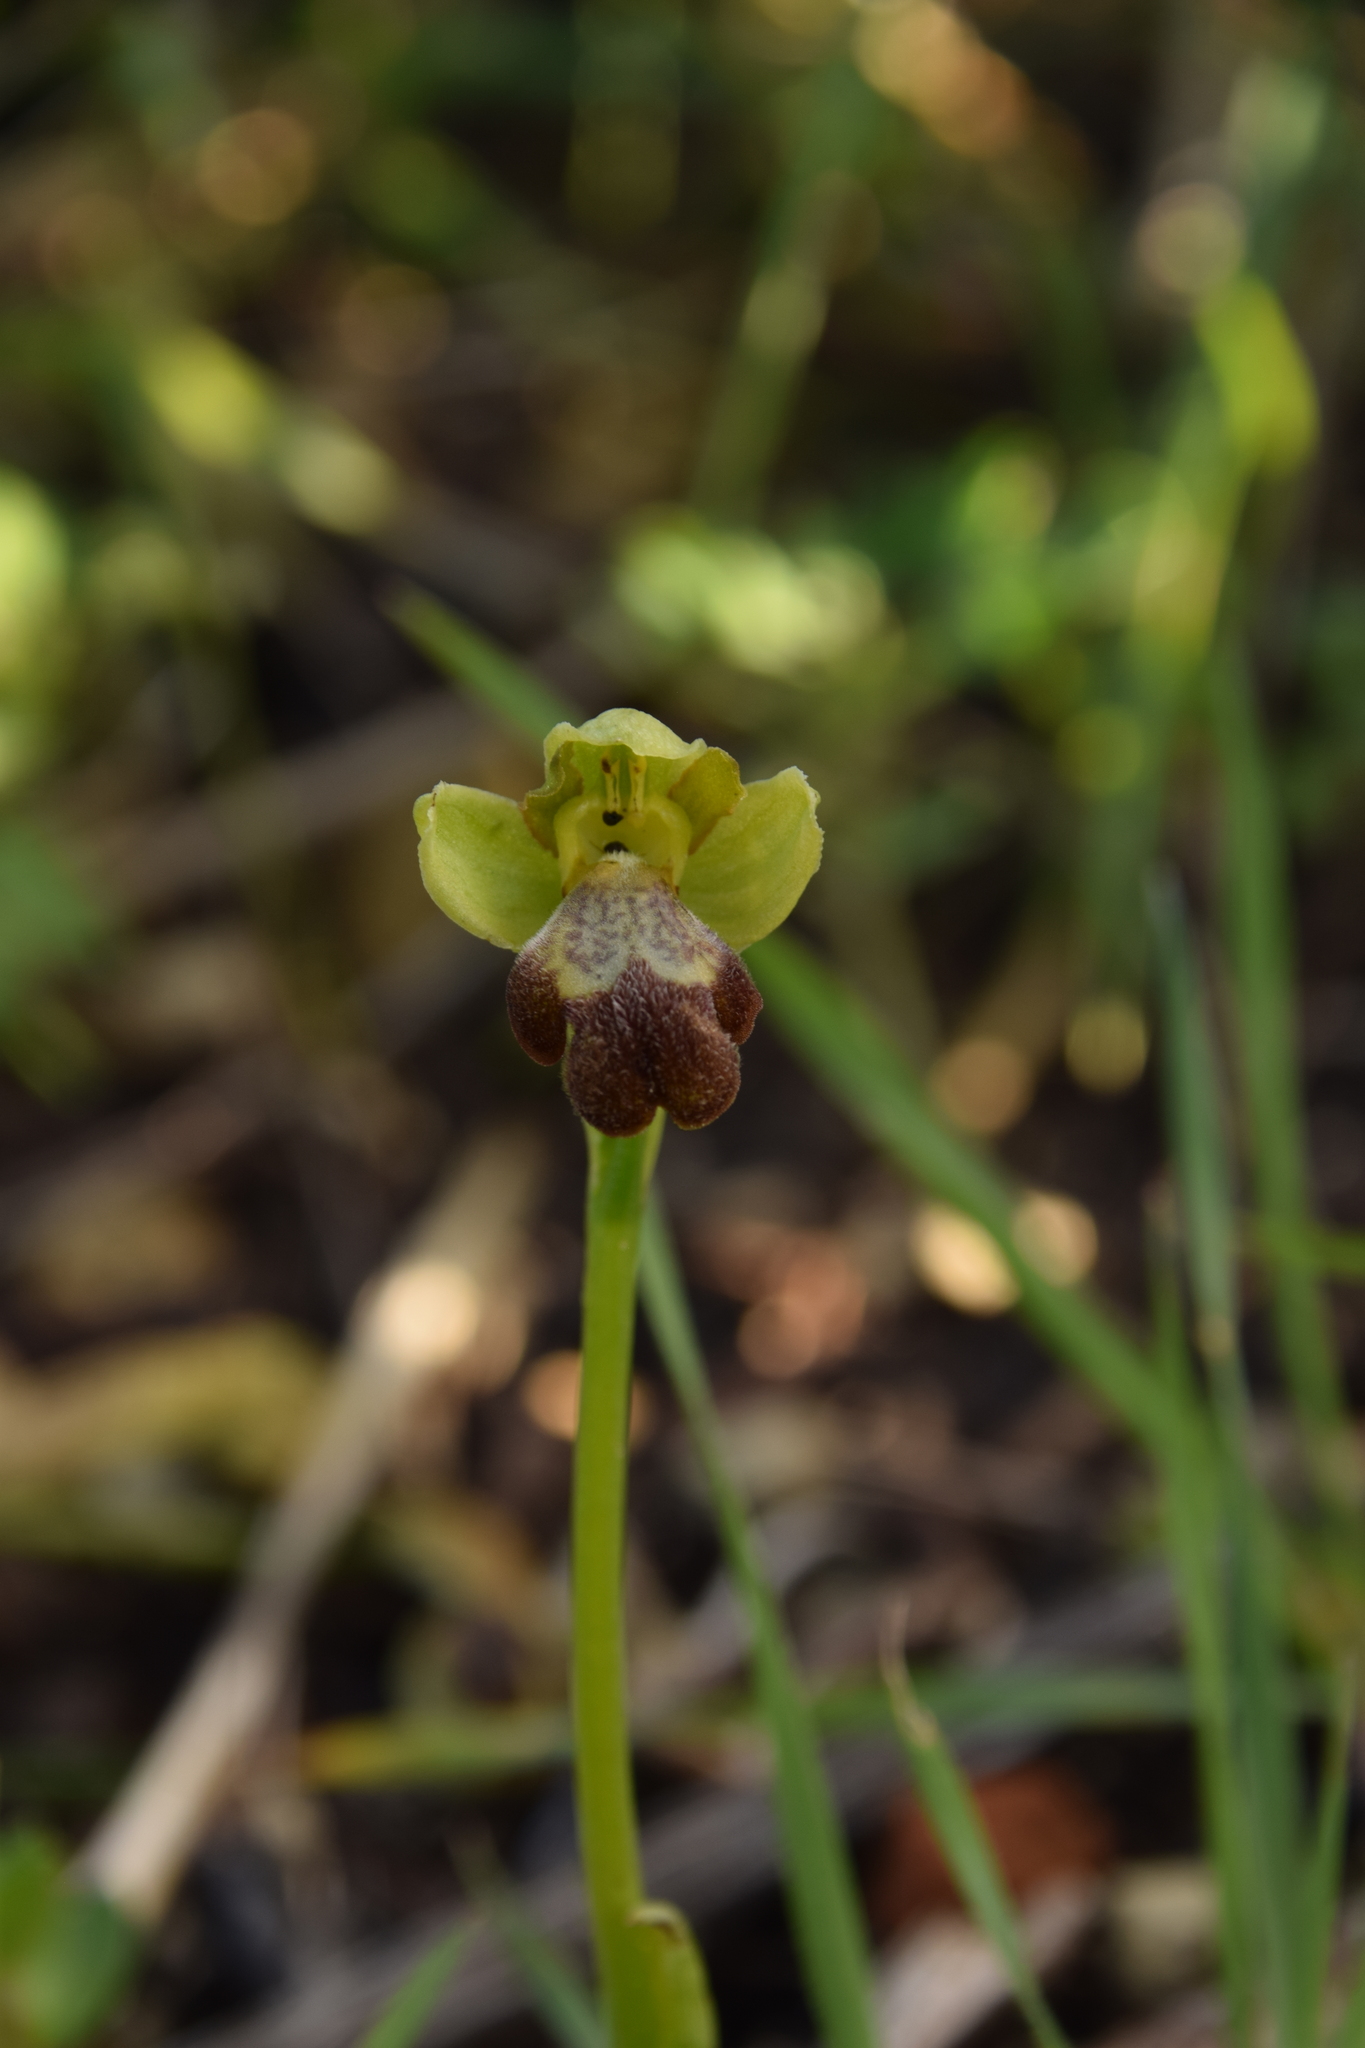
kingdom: Plantae
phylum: Tracheophyta
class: Liliopsida
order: Asparagales
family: Orchidaceae
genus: Ophrys
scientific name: Ophrys omegaifera
